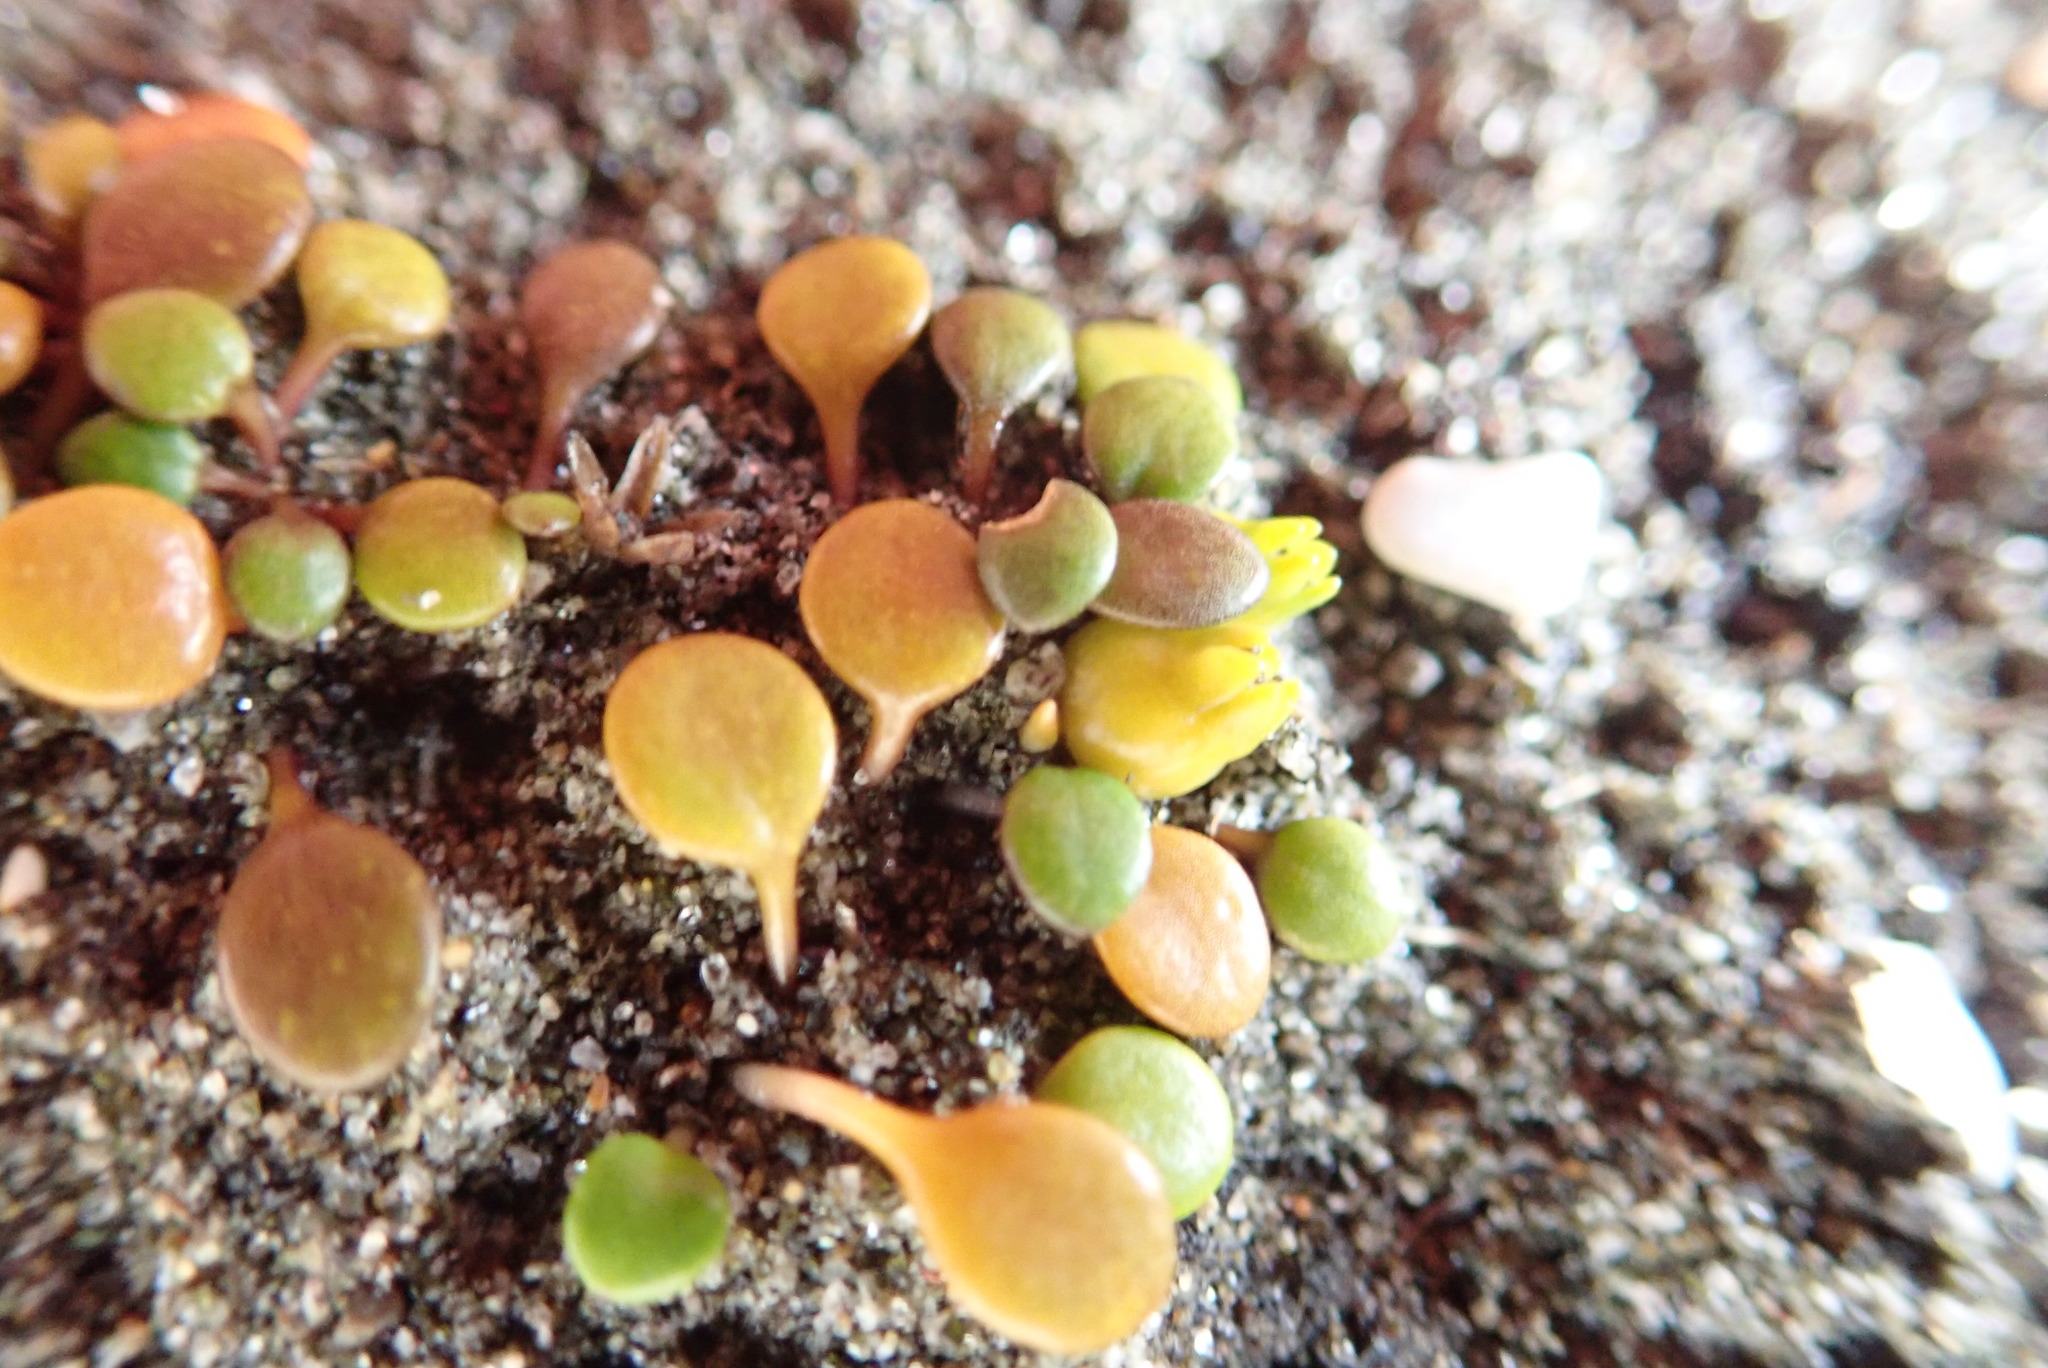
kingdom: Plantae
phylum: Tracheophyta
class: Magnoliopsida
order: Asterales
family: Goodeniaceae
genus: Goodenia
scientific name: Goodenia heenanii
